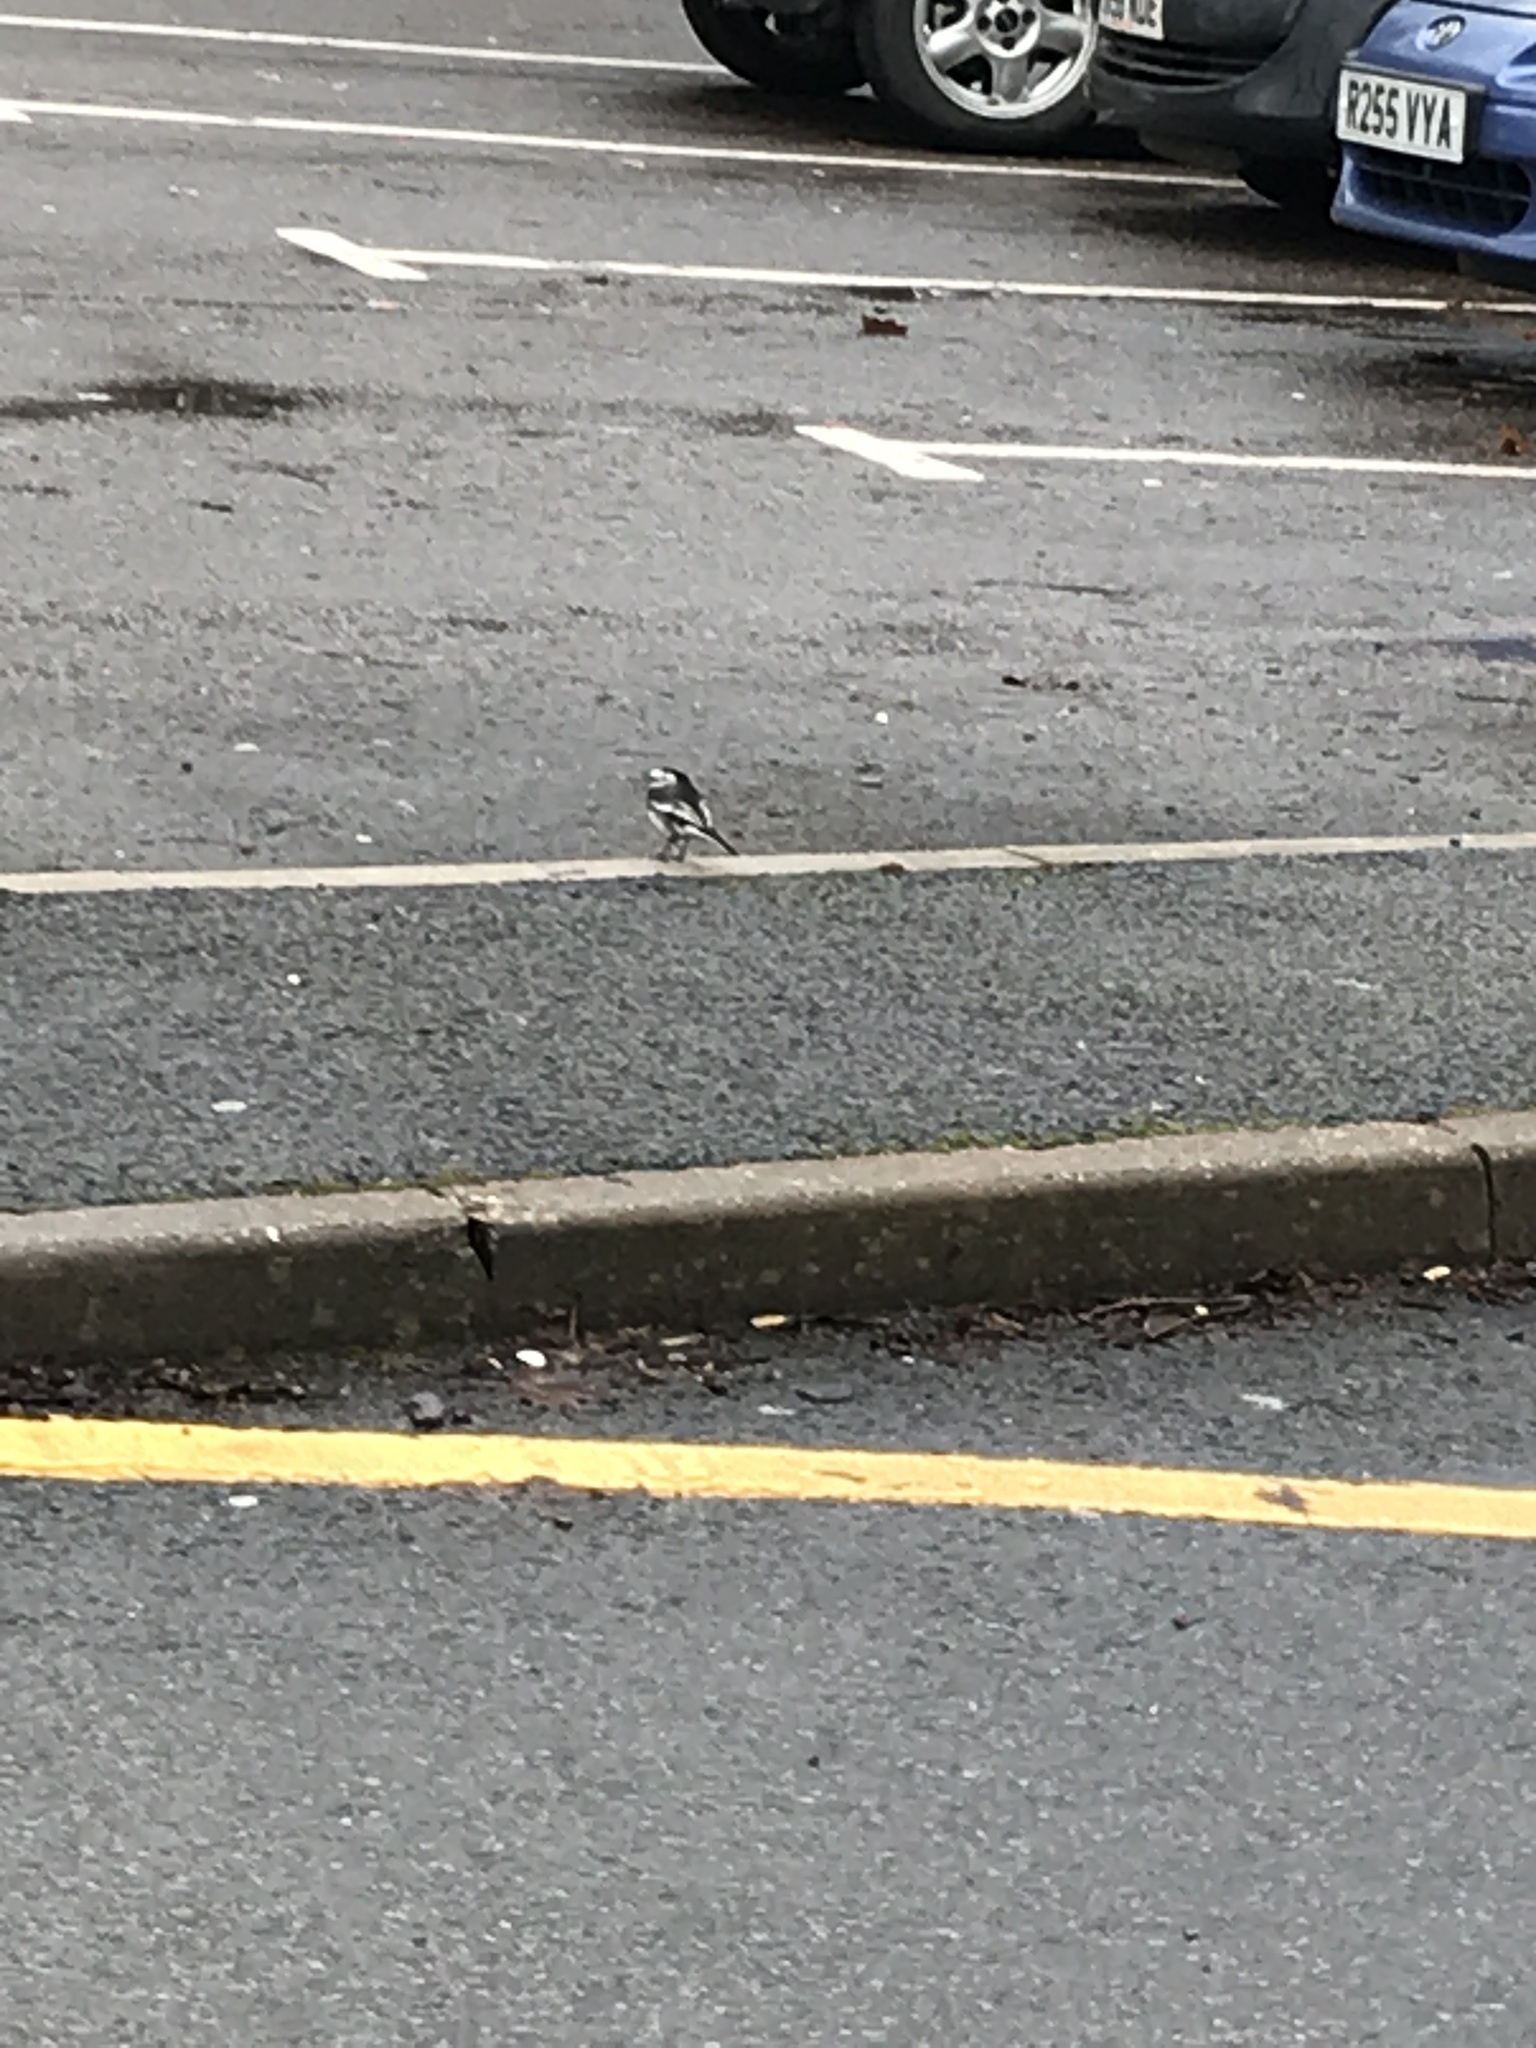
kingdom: Animalia
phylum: Chordata
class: Aves
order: Passeriformes
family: Motacillidae
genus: Motacilla
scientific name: Motacilla alba
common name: White wagtail
